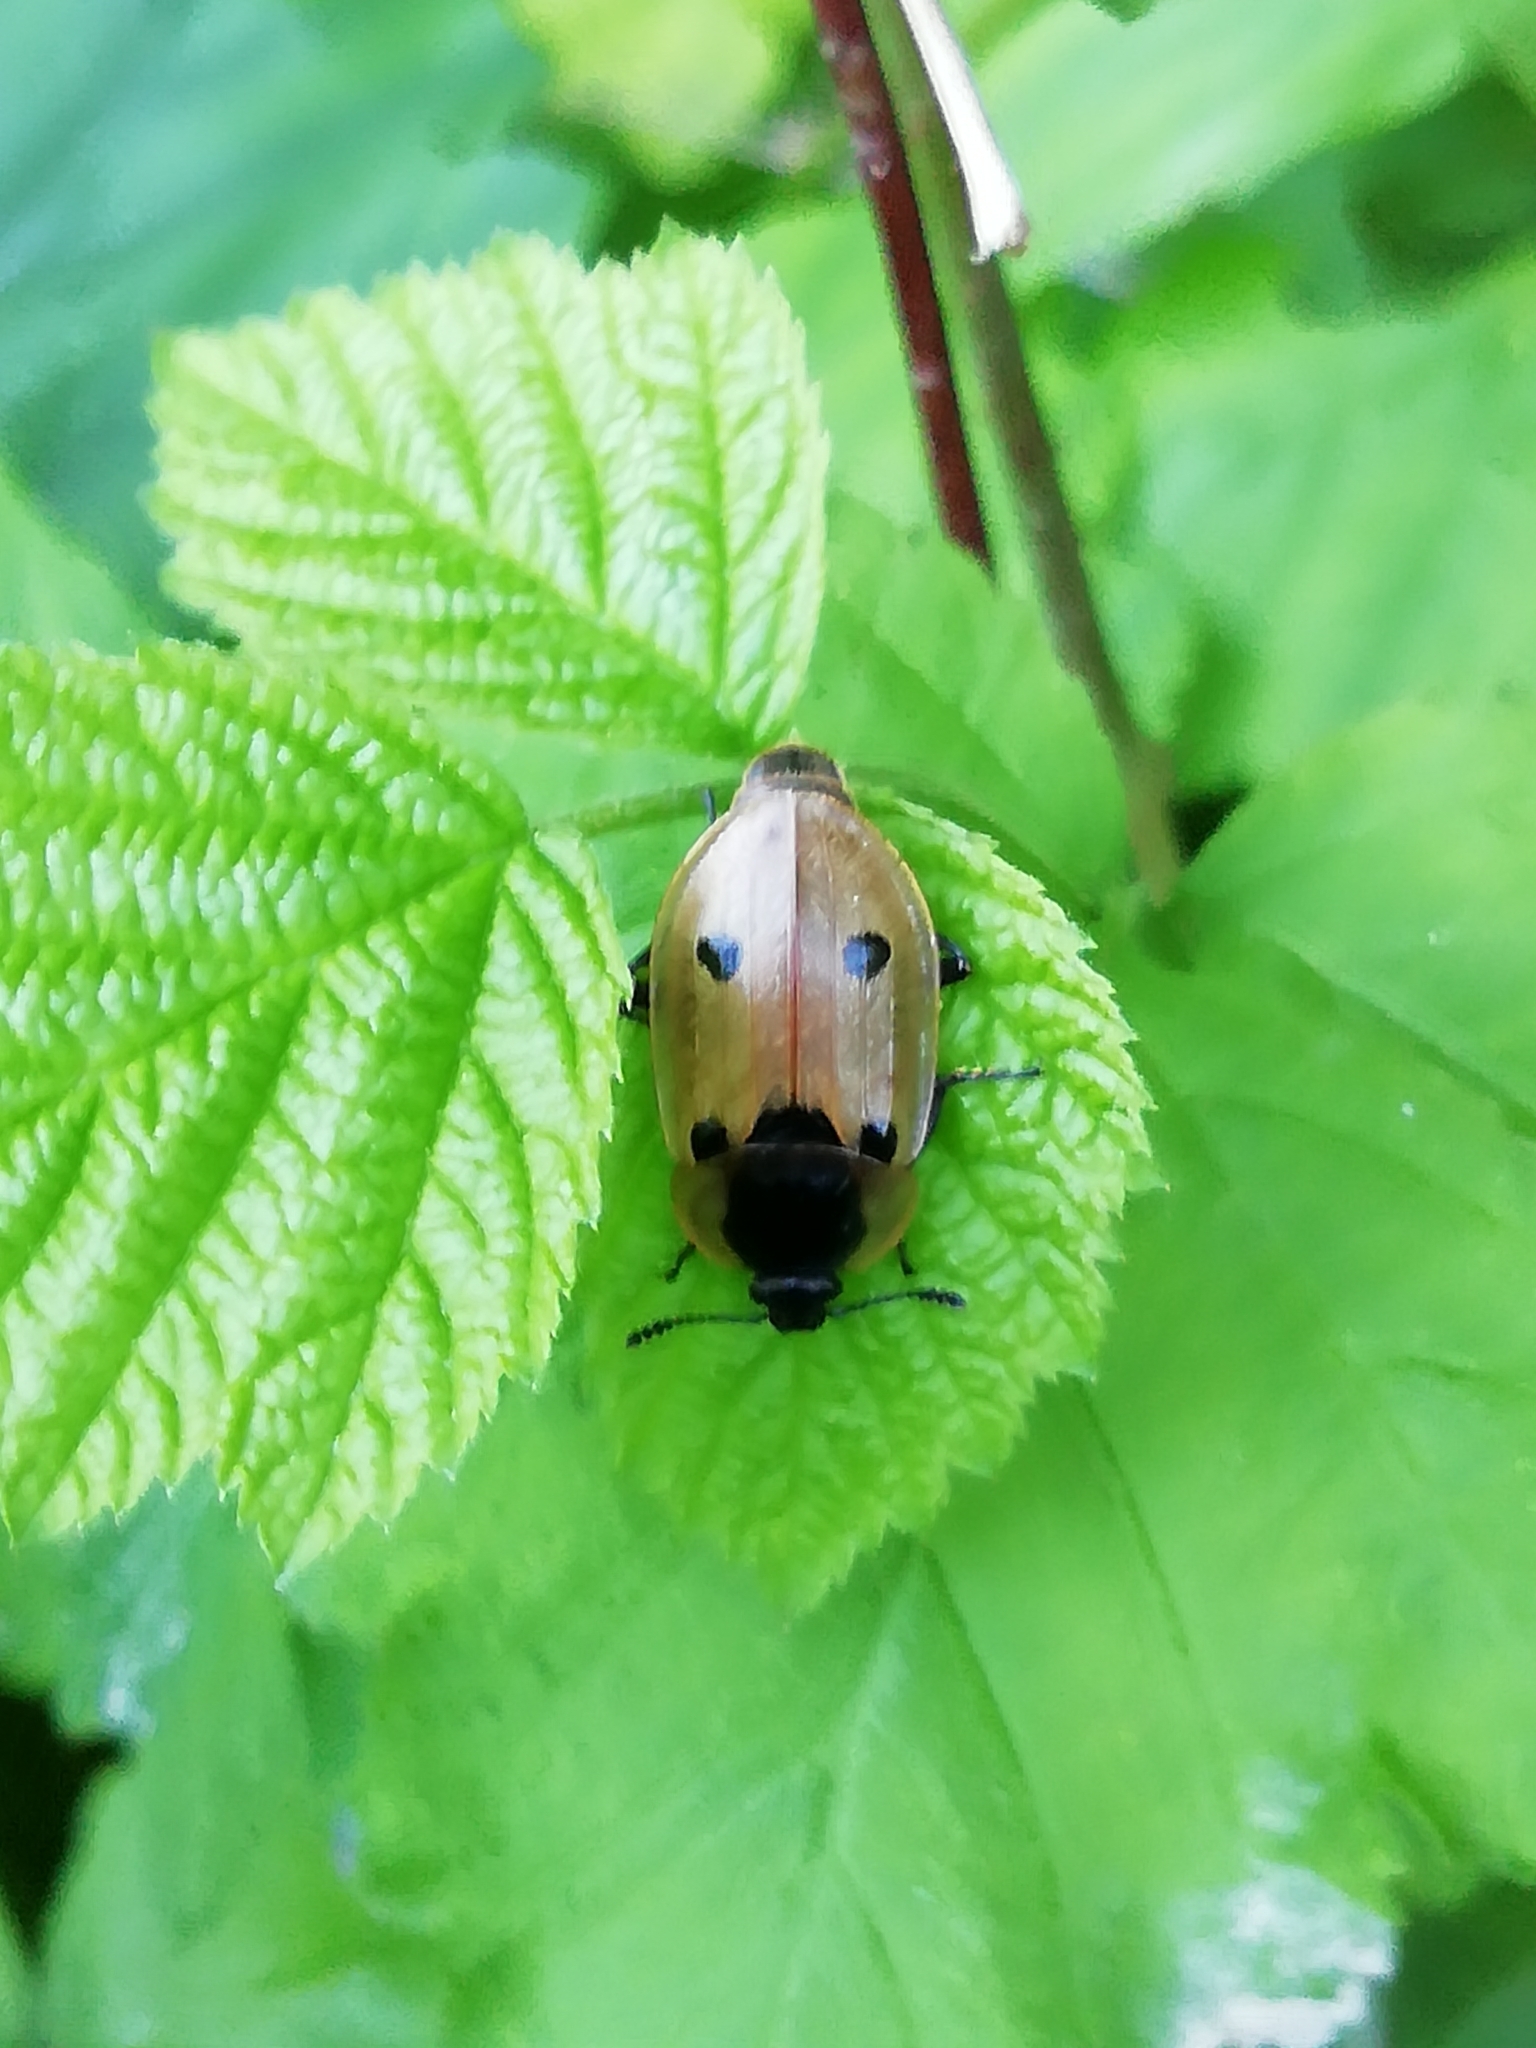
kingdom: Animalia
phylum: Arthropoda
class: Insecta
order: Coleoptera
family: Staphylinidae
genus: Dendroxena
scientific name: Dendroxena quadrimaculata
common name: Carrion beetle
